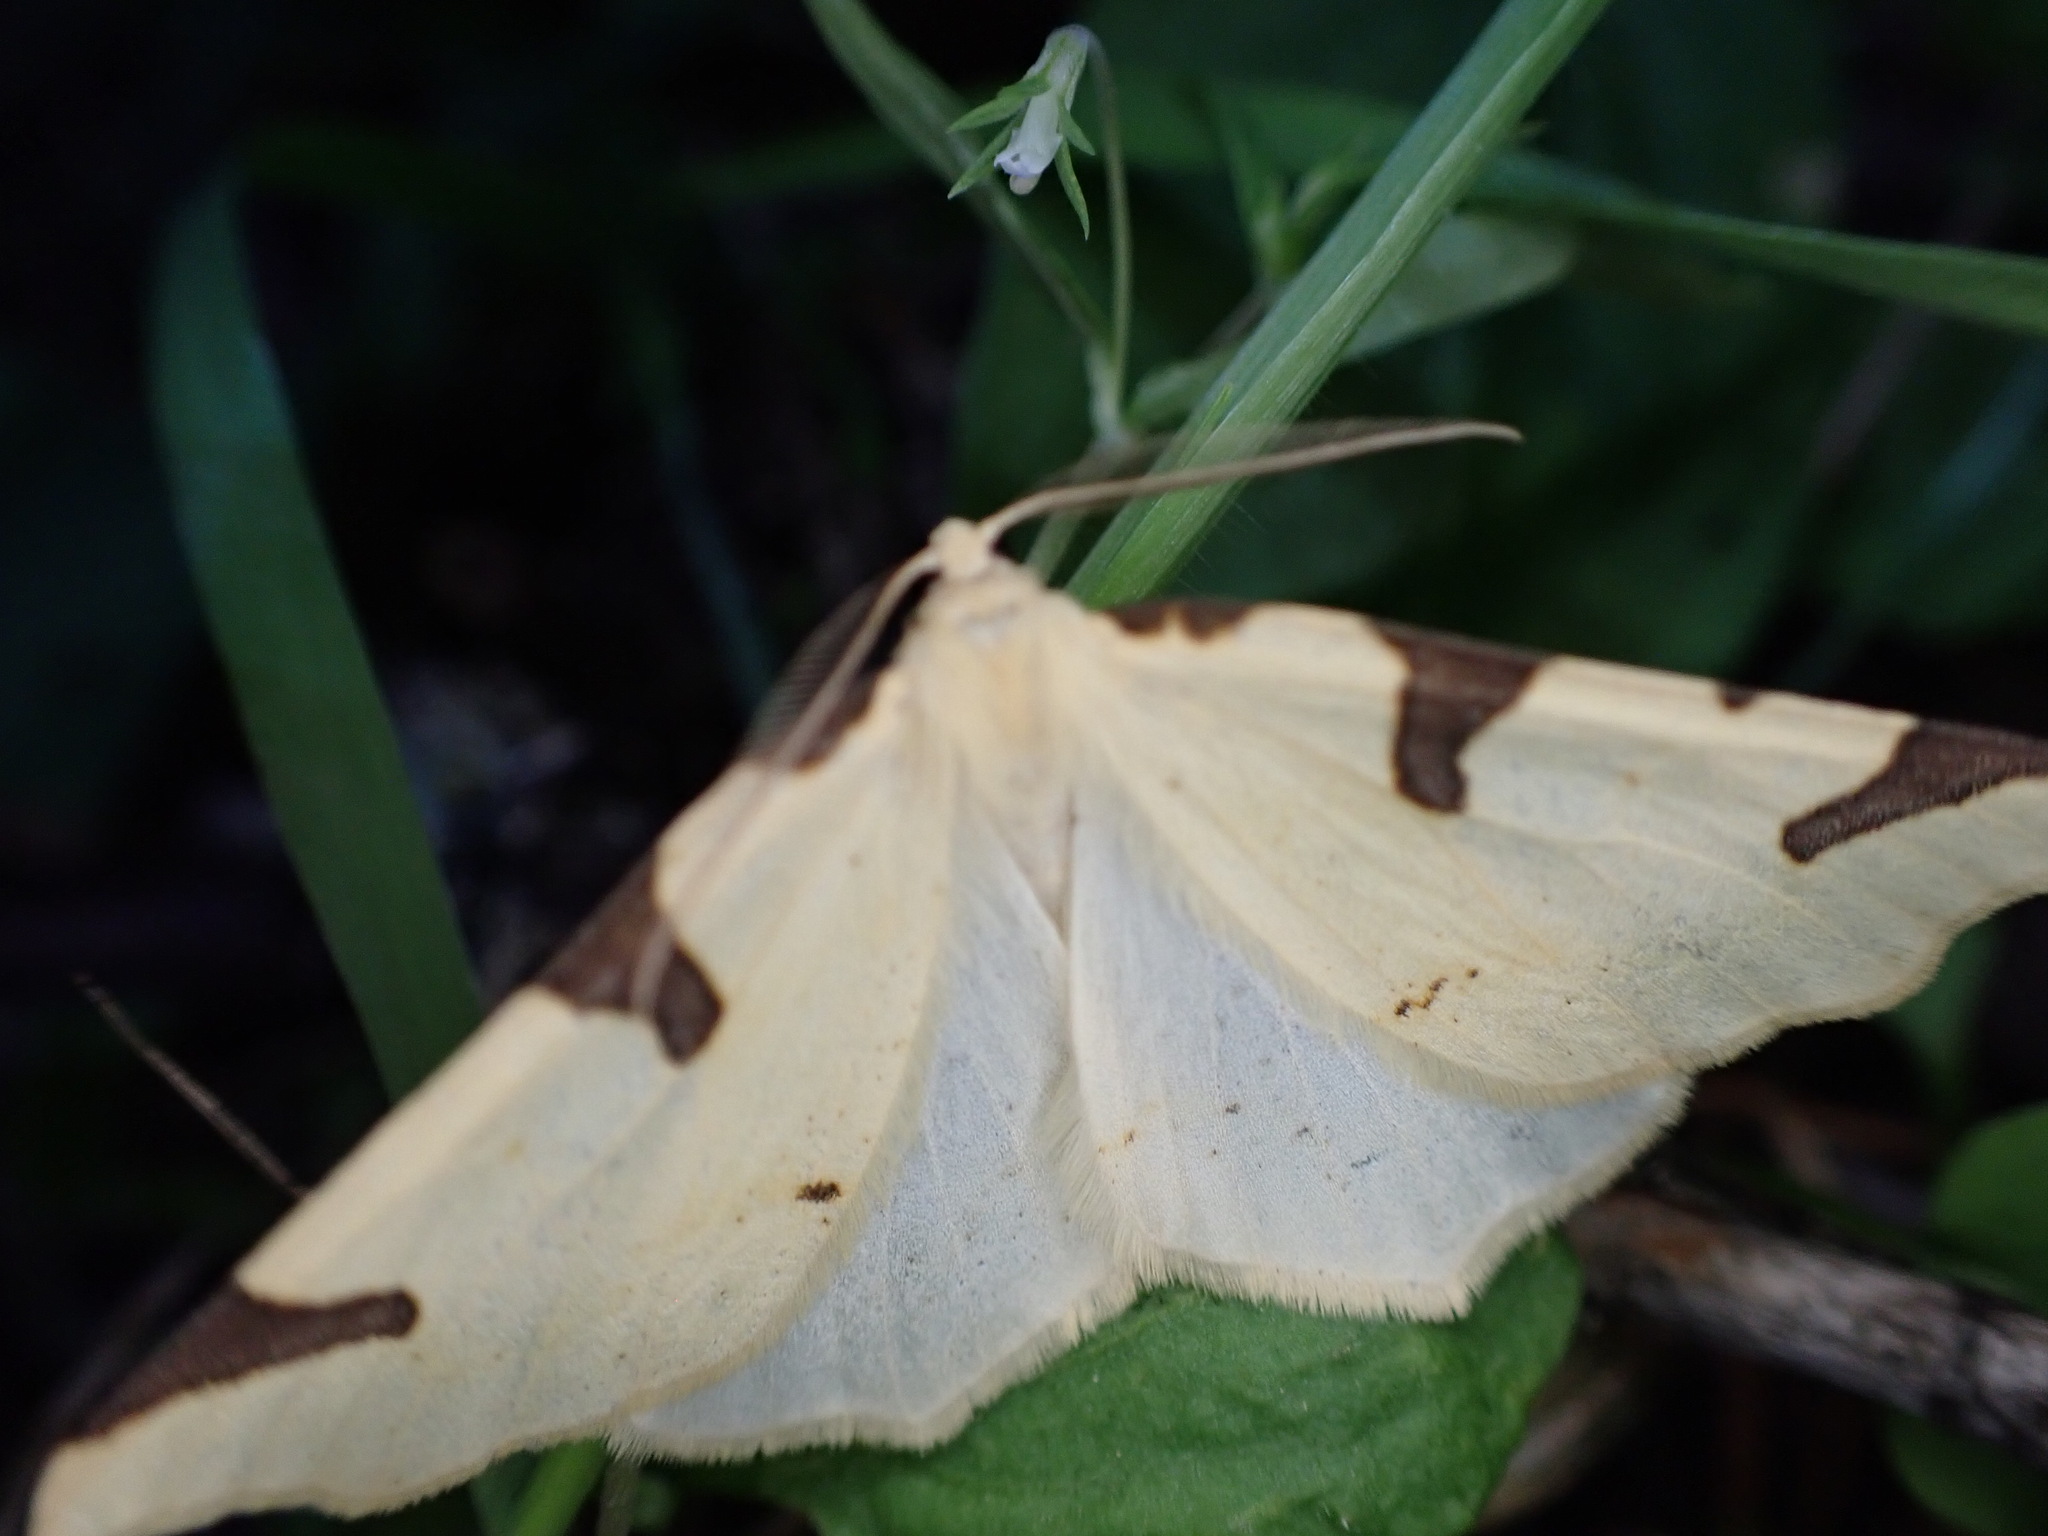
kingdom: Animalia
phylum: Arthropoda
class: Insecta
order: Lepidoptera
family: Geometridae
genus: Neoterpes
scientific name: Neoterpes trianguliferata
